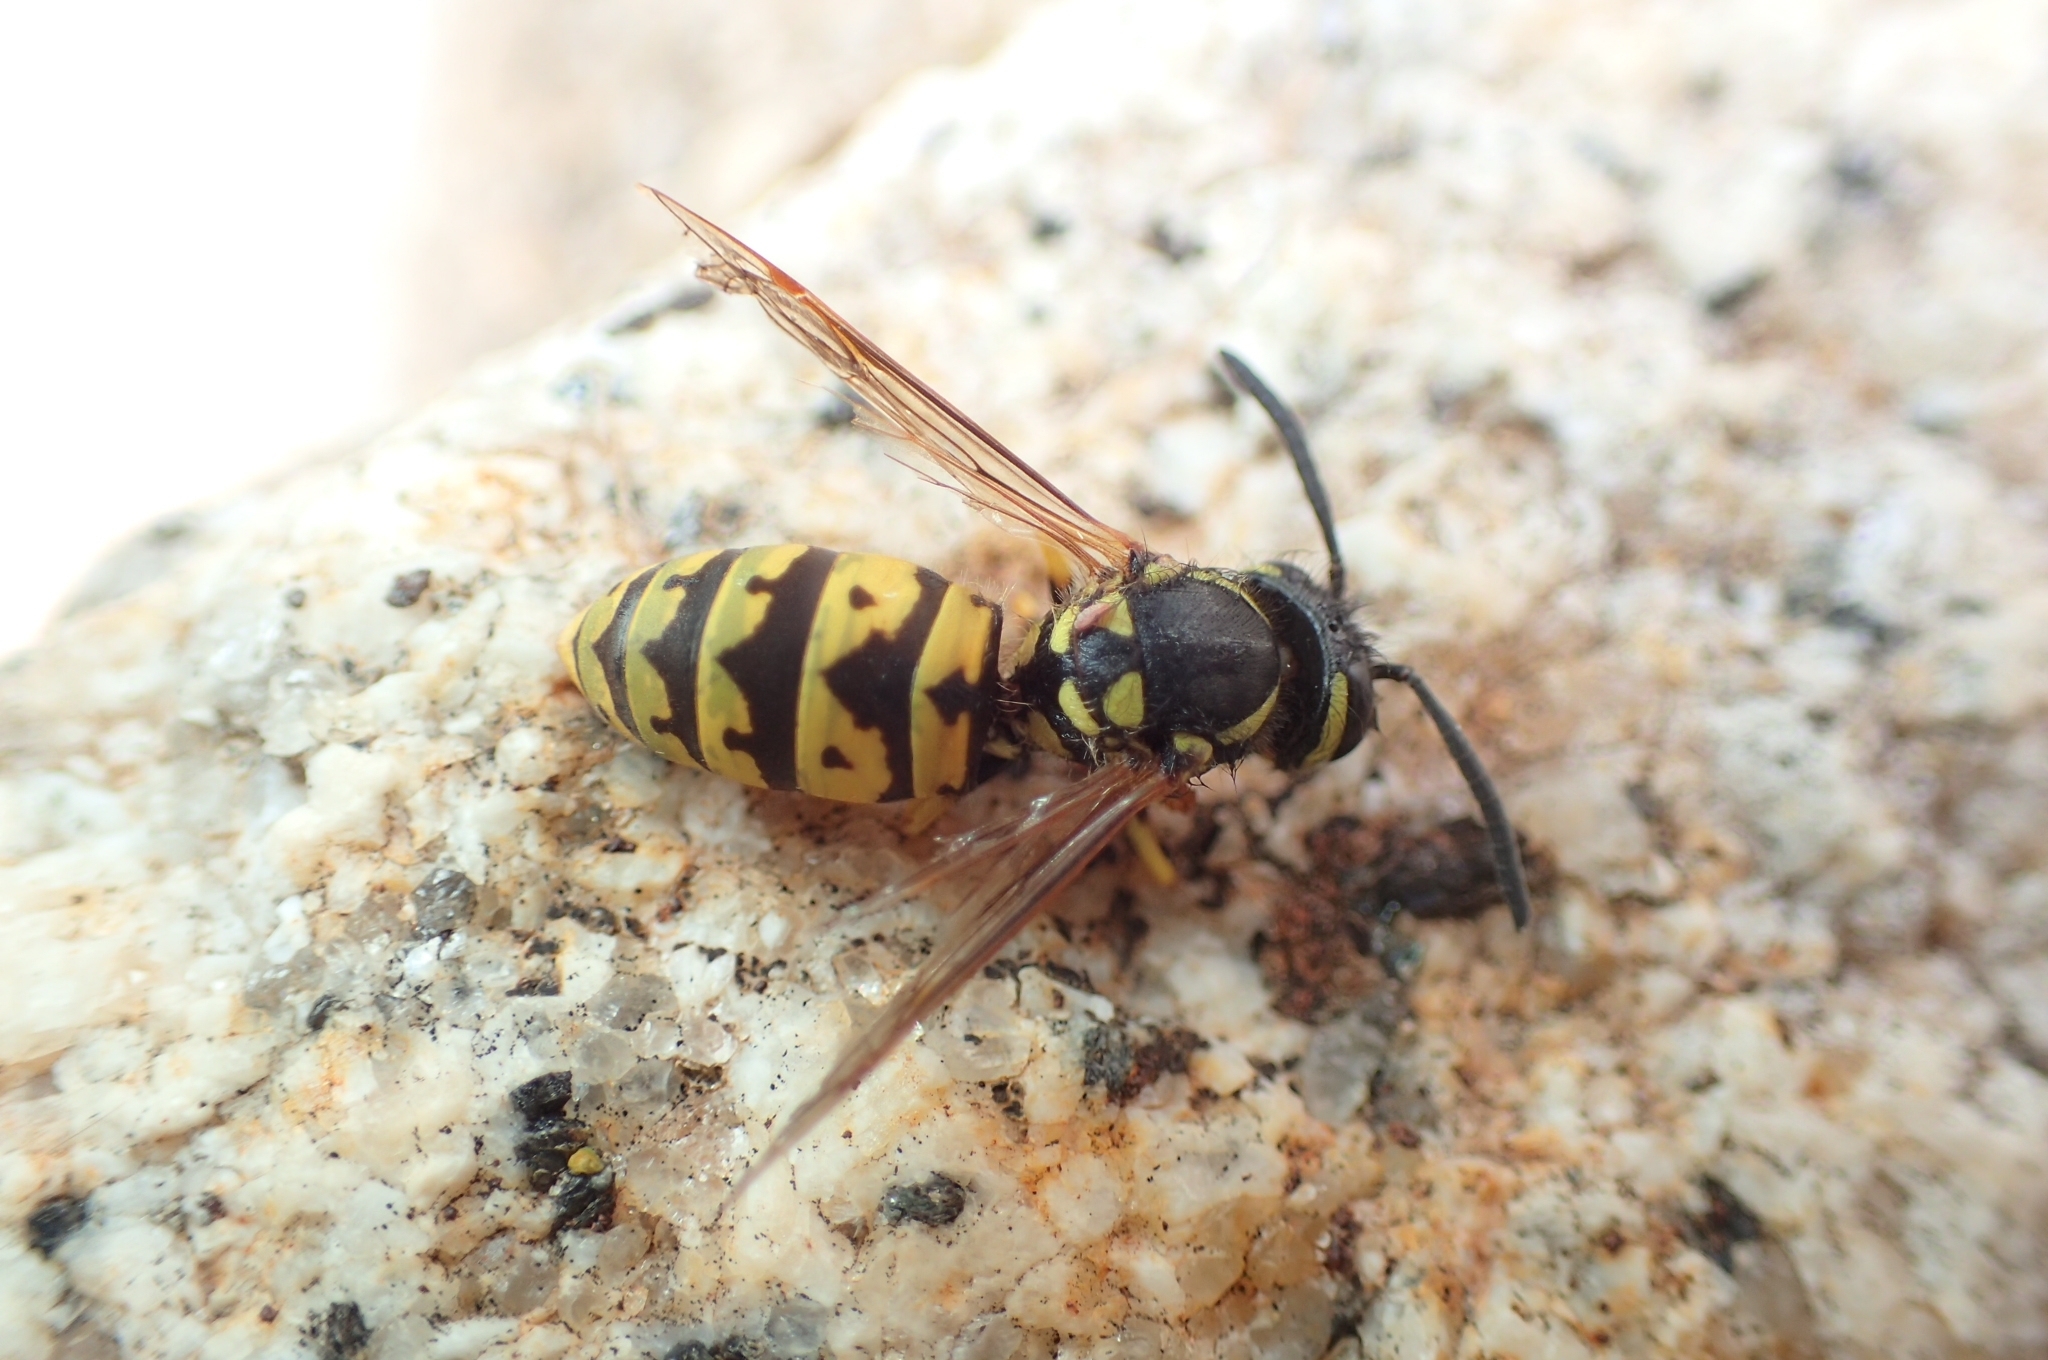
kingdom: Animalia
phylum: Arthropoda
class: Insecta
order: Hymenoptera
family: Vespidae
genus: Vespula
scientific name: Vespula germanica
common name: German wasp
